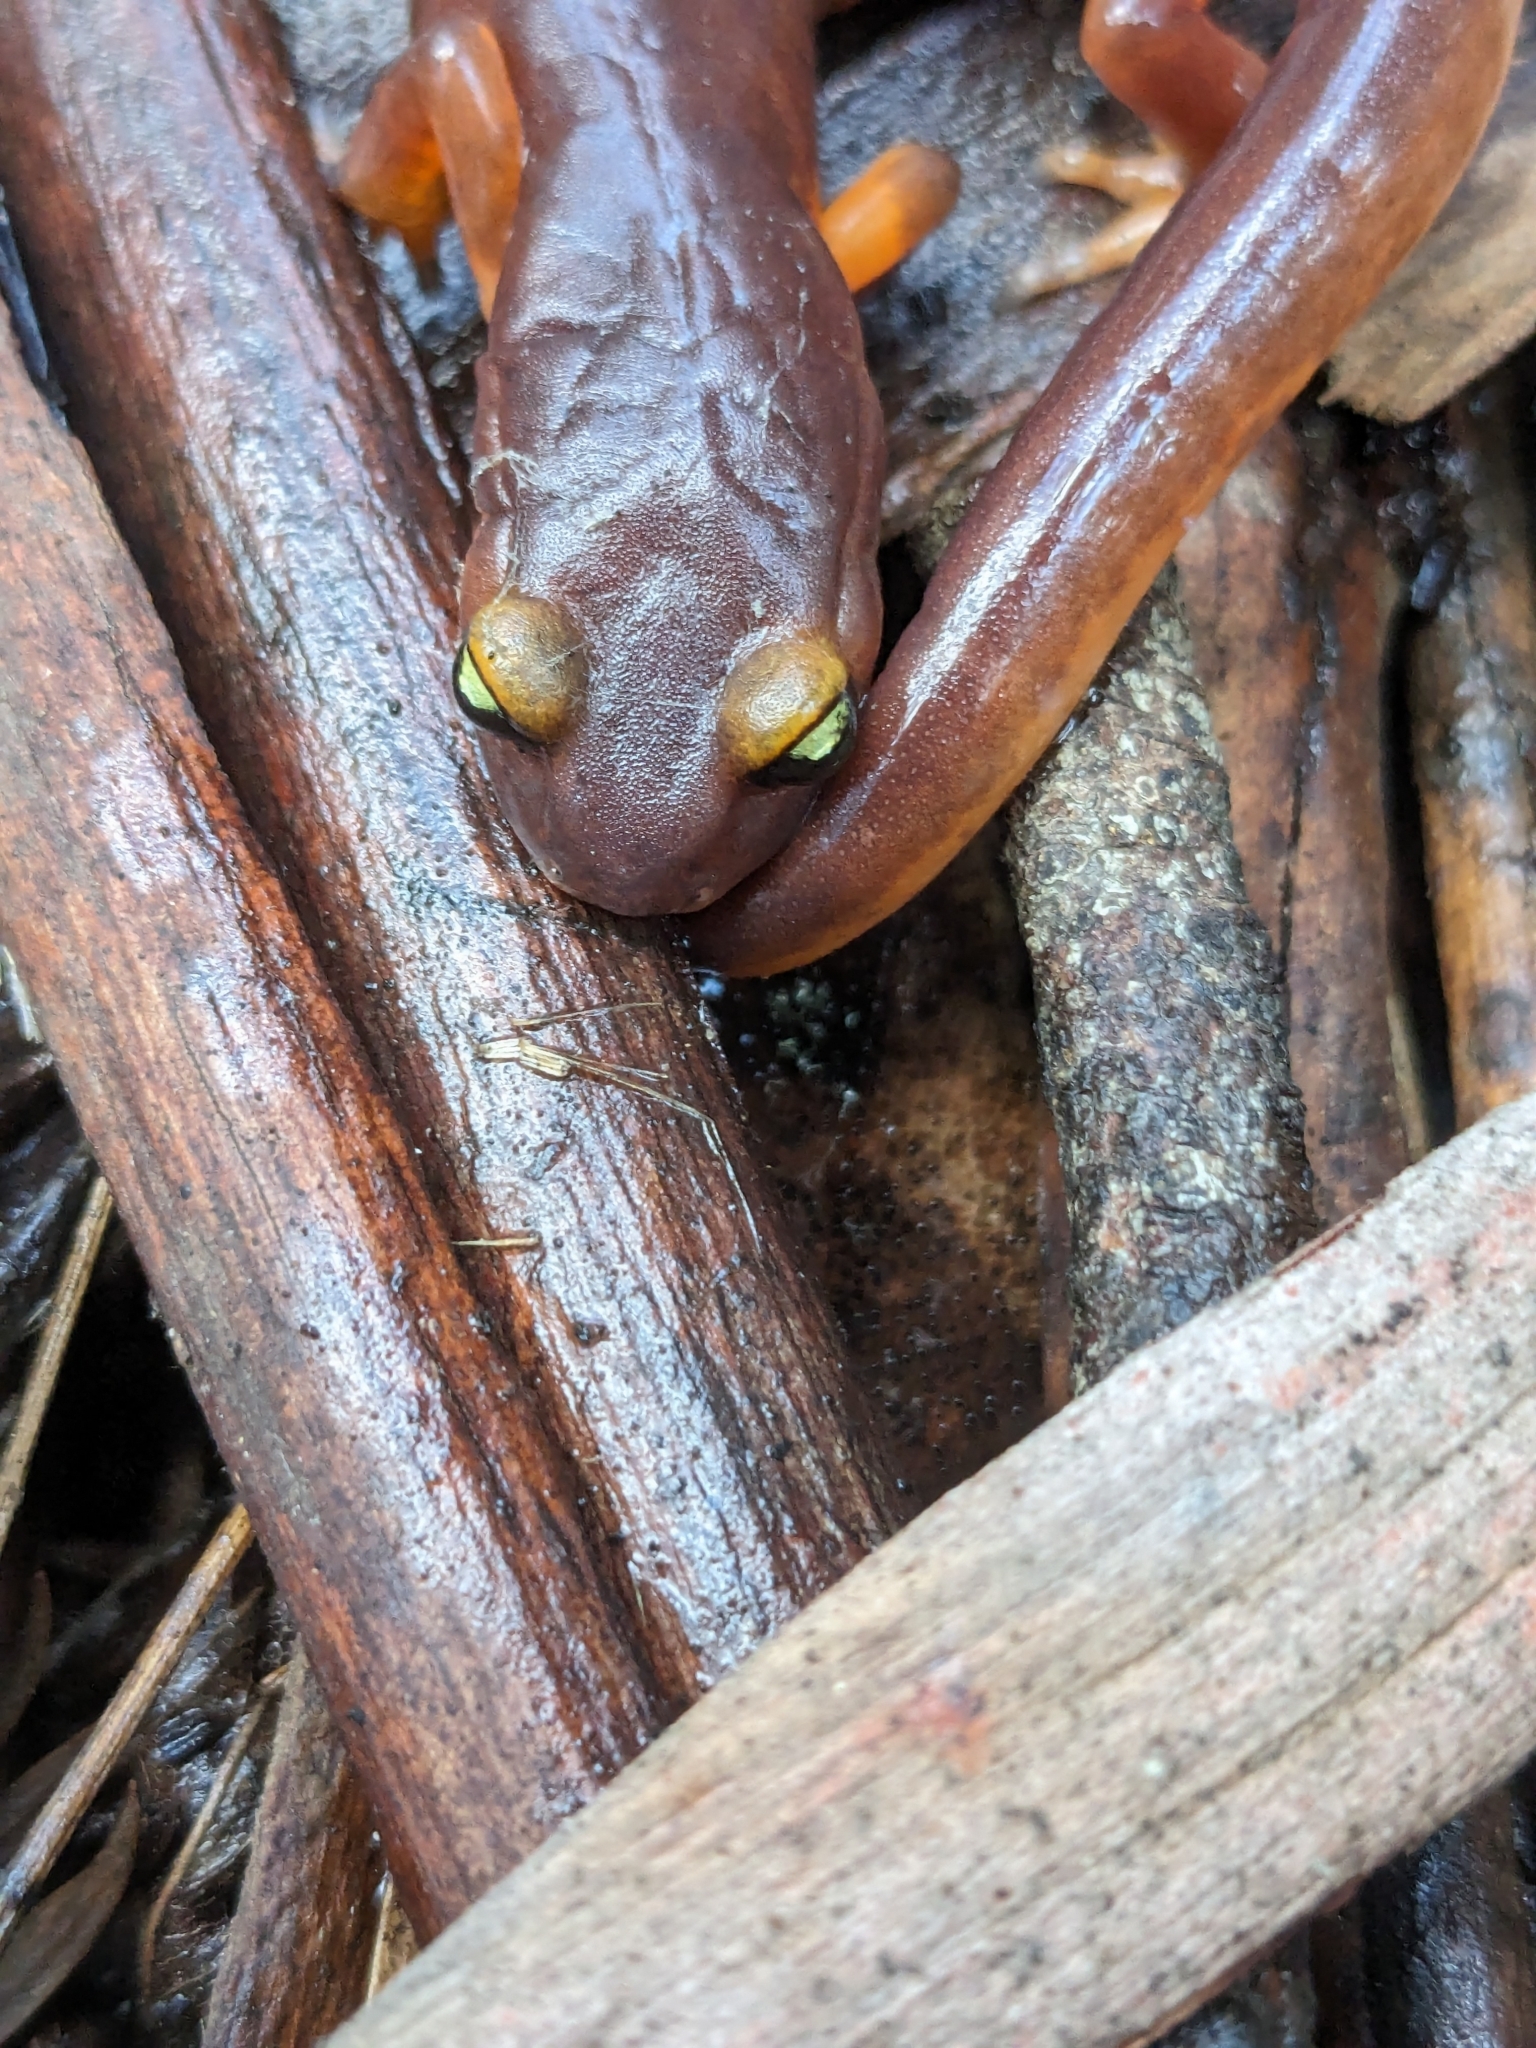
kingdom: Animalia
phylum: Chordata
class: Amphibia
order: Caudata
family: Plethodontidae
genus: Ensatina
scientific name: Ensatina eschscholtzii
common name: Ensatina
